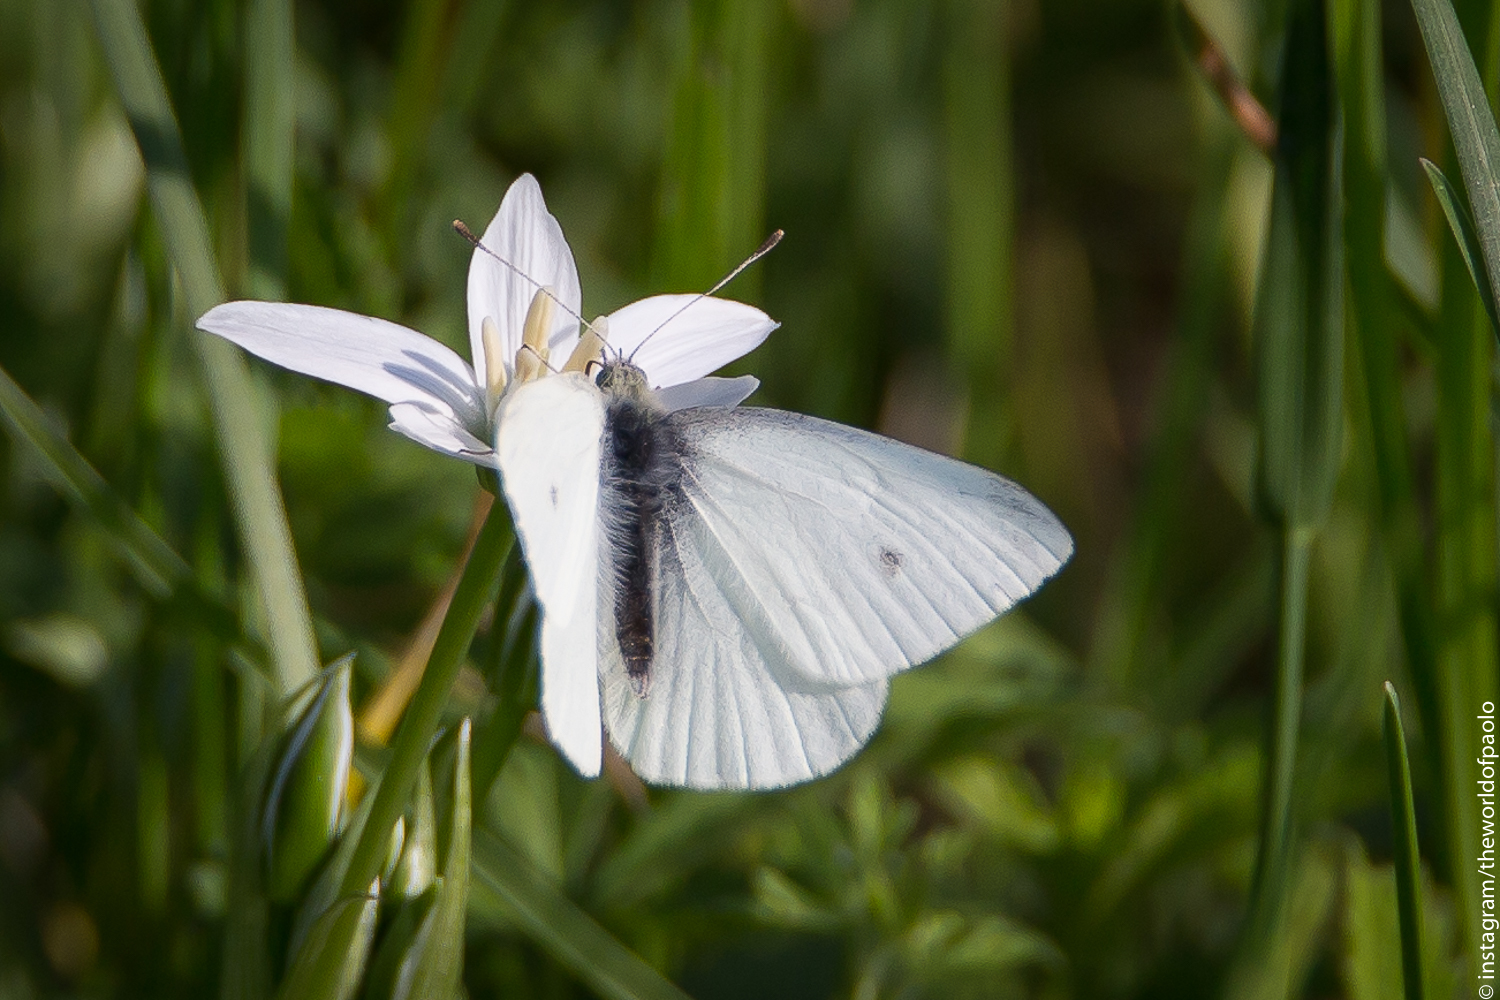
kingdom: Animalia
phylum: Arthropoda
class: Insecta
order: Lepidoptera
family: Pieridae
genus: Pieris
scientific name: Pieris rapae
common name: Small white
